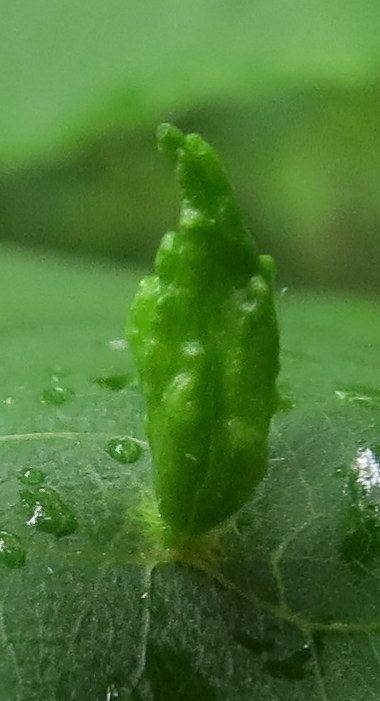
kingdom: Animalia
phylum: Arthropoda
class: Arachnida
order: Trombidiformes
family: Eriophyidae
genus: Eriophyes
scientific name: Eriophyes tiliae
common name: Red nail gall mite
